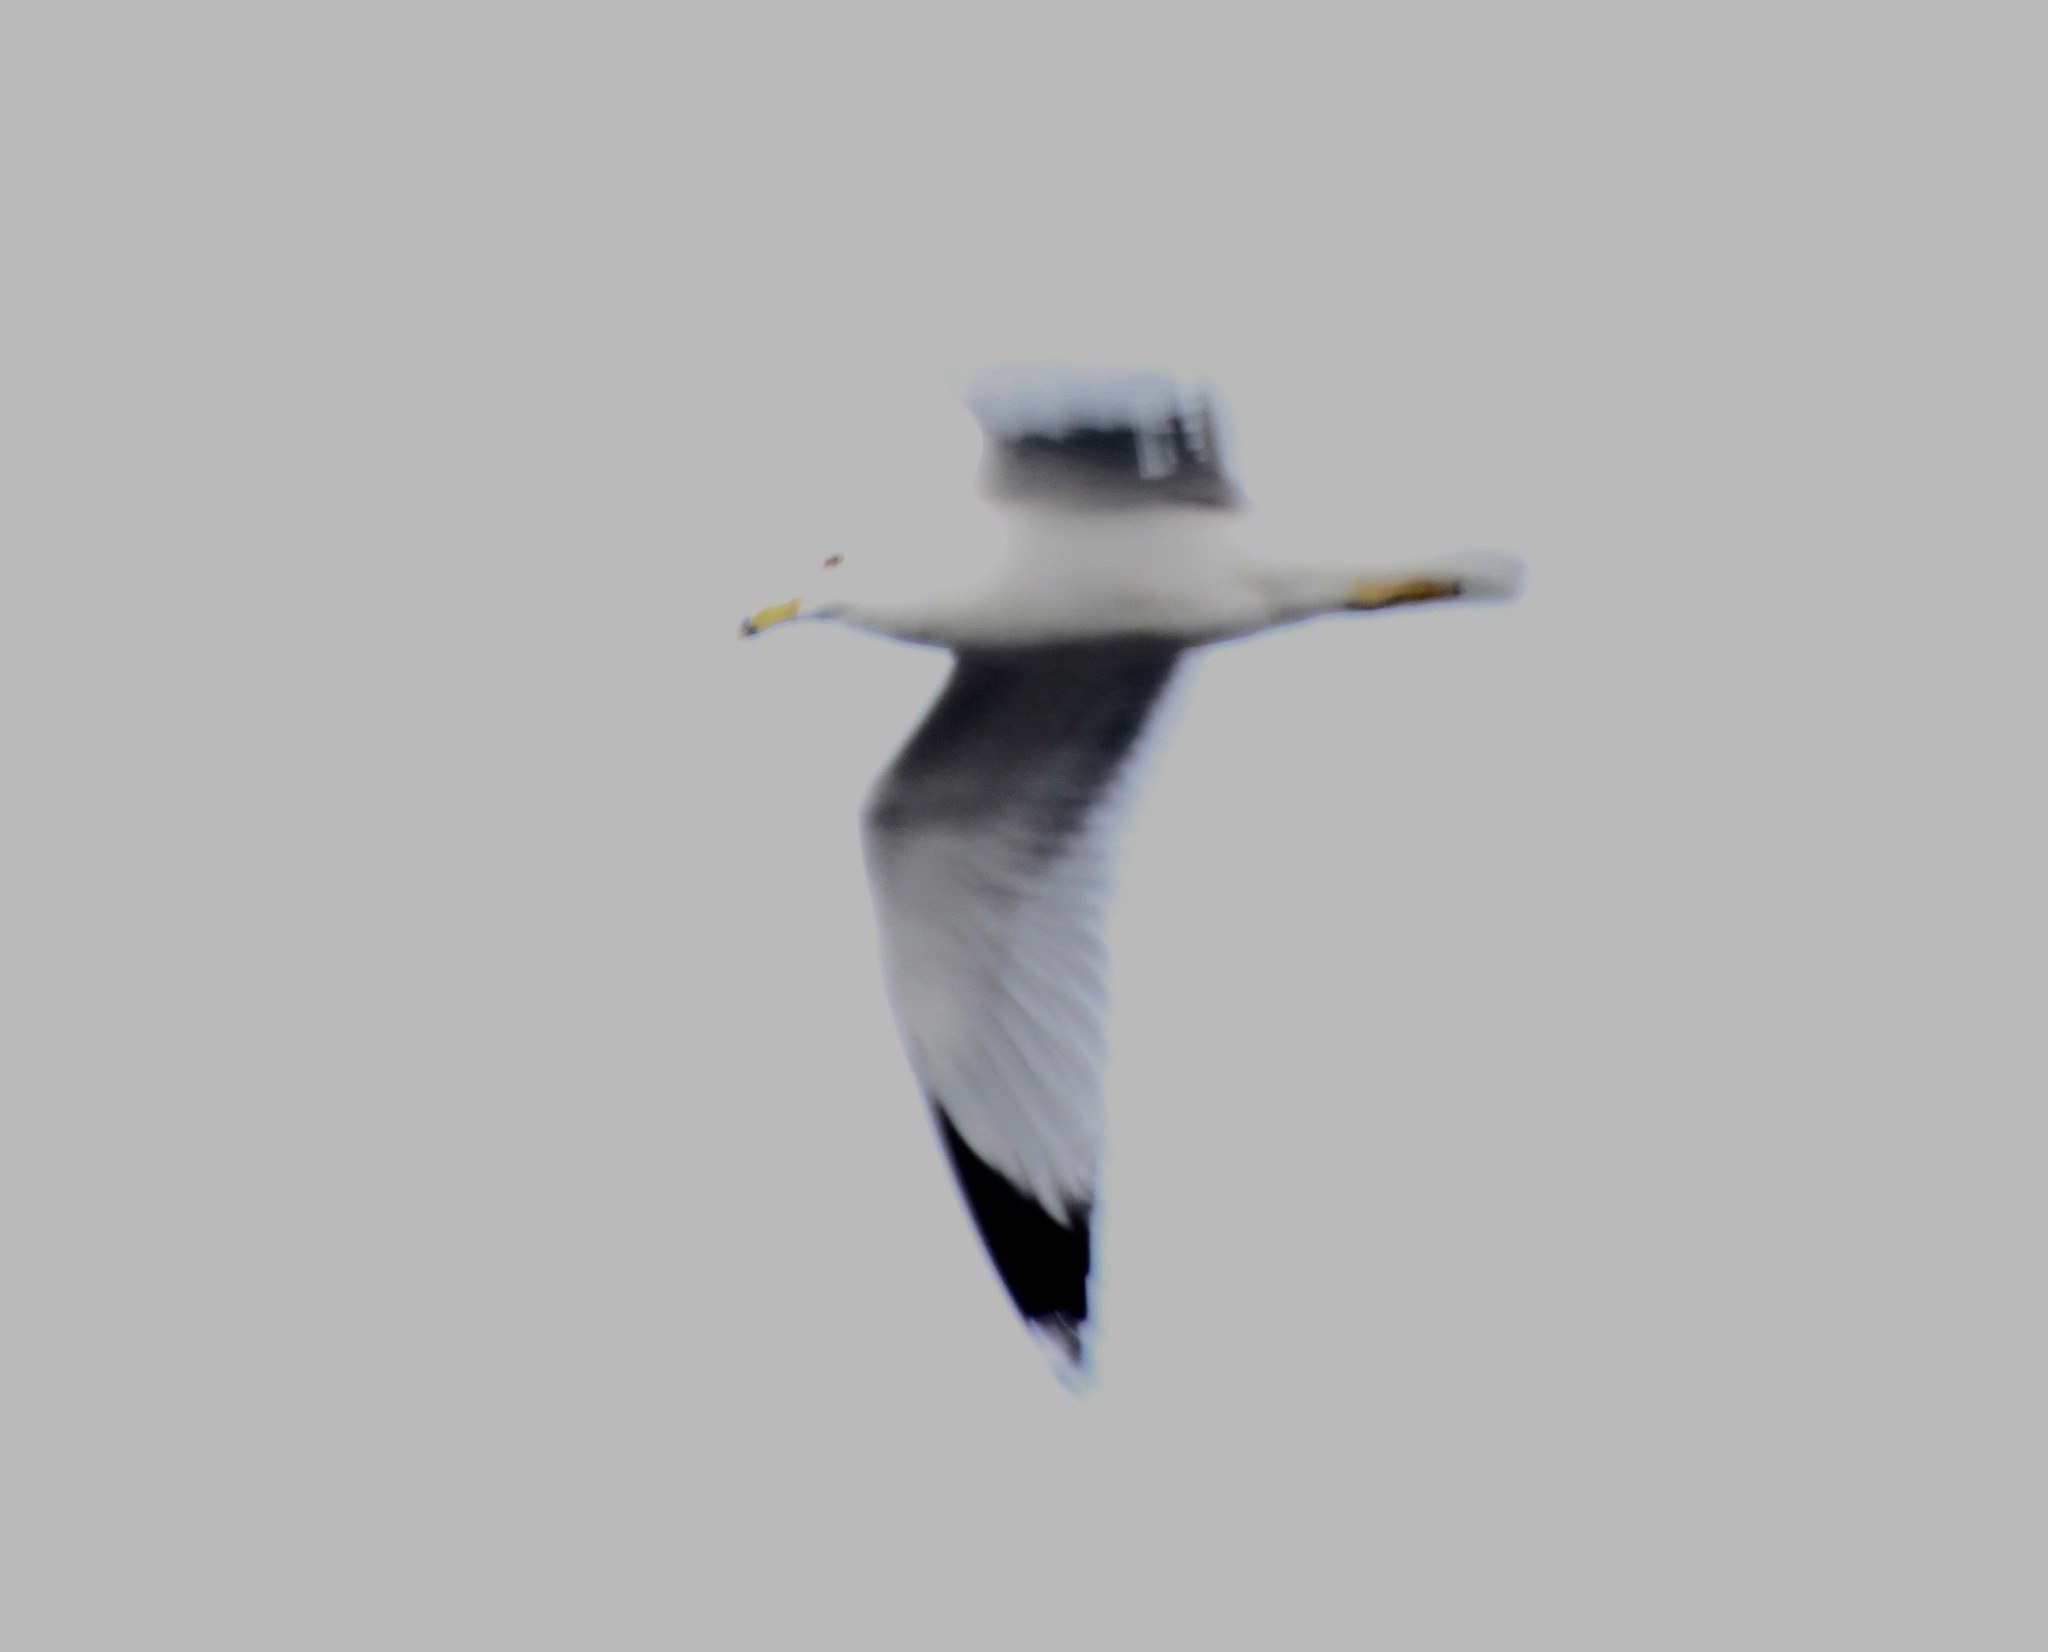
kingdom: Animalia
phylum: Chordata
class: Aves
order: Charadriiformes
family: Laridae
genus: Larus
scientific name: Larus delawarensis
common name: Ring-billed gull
